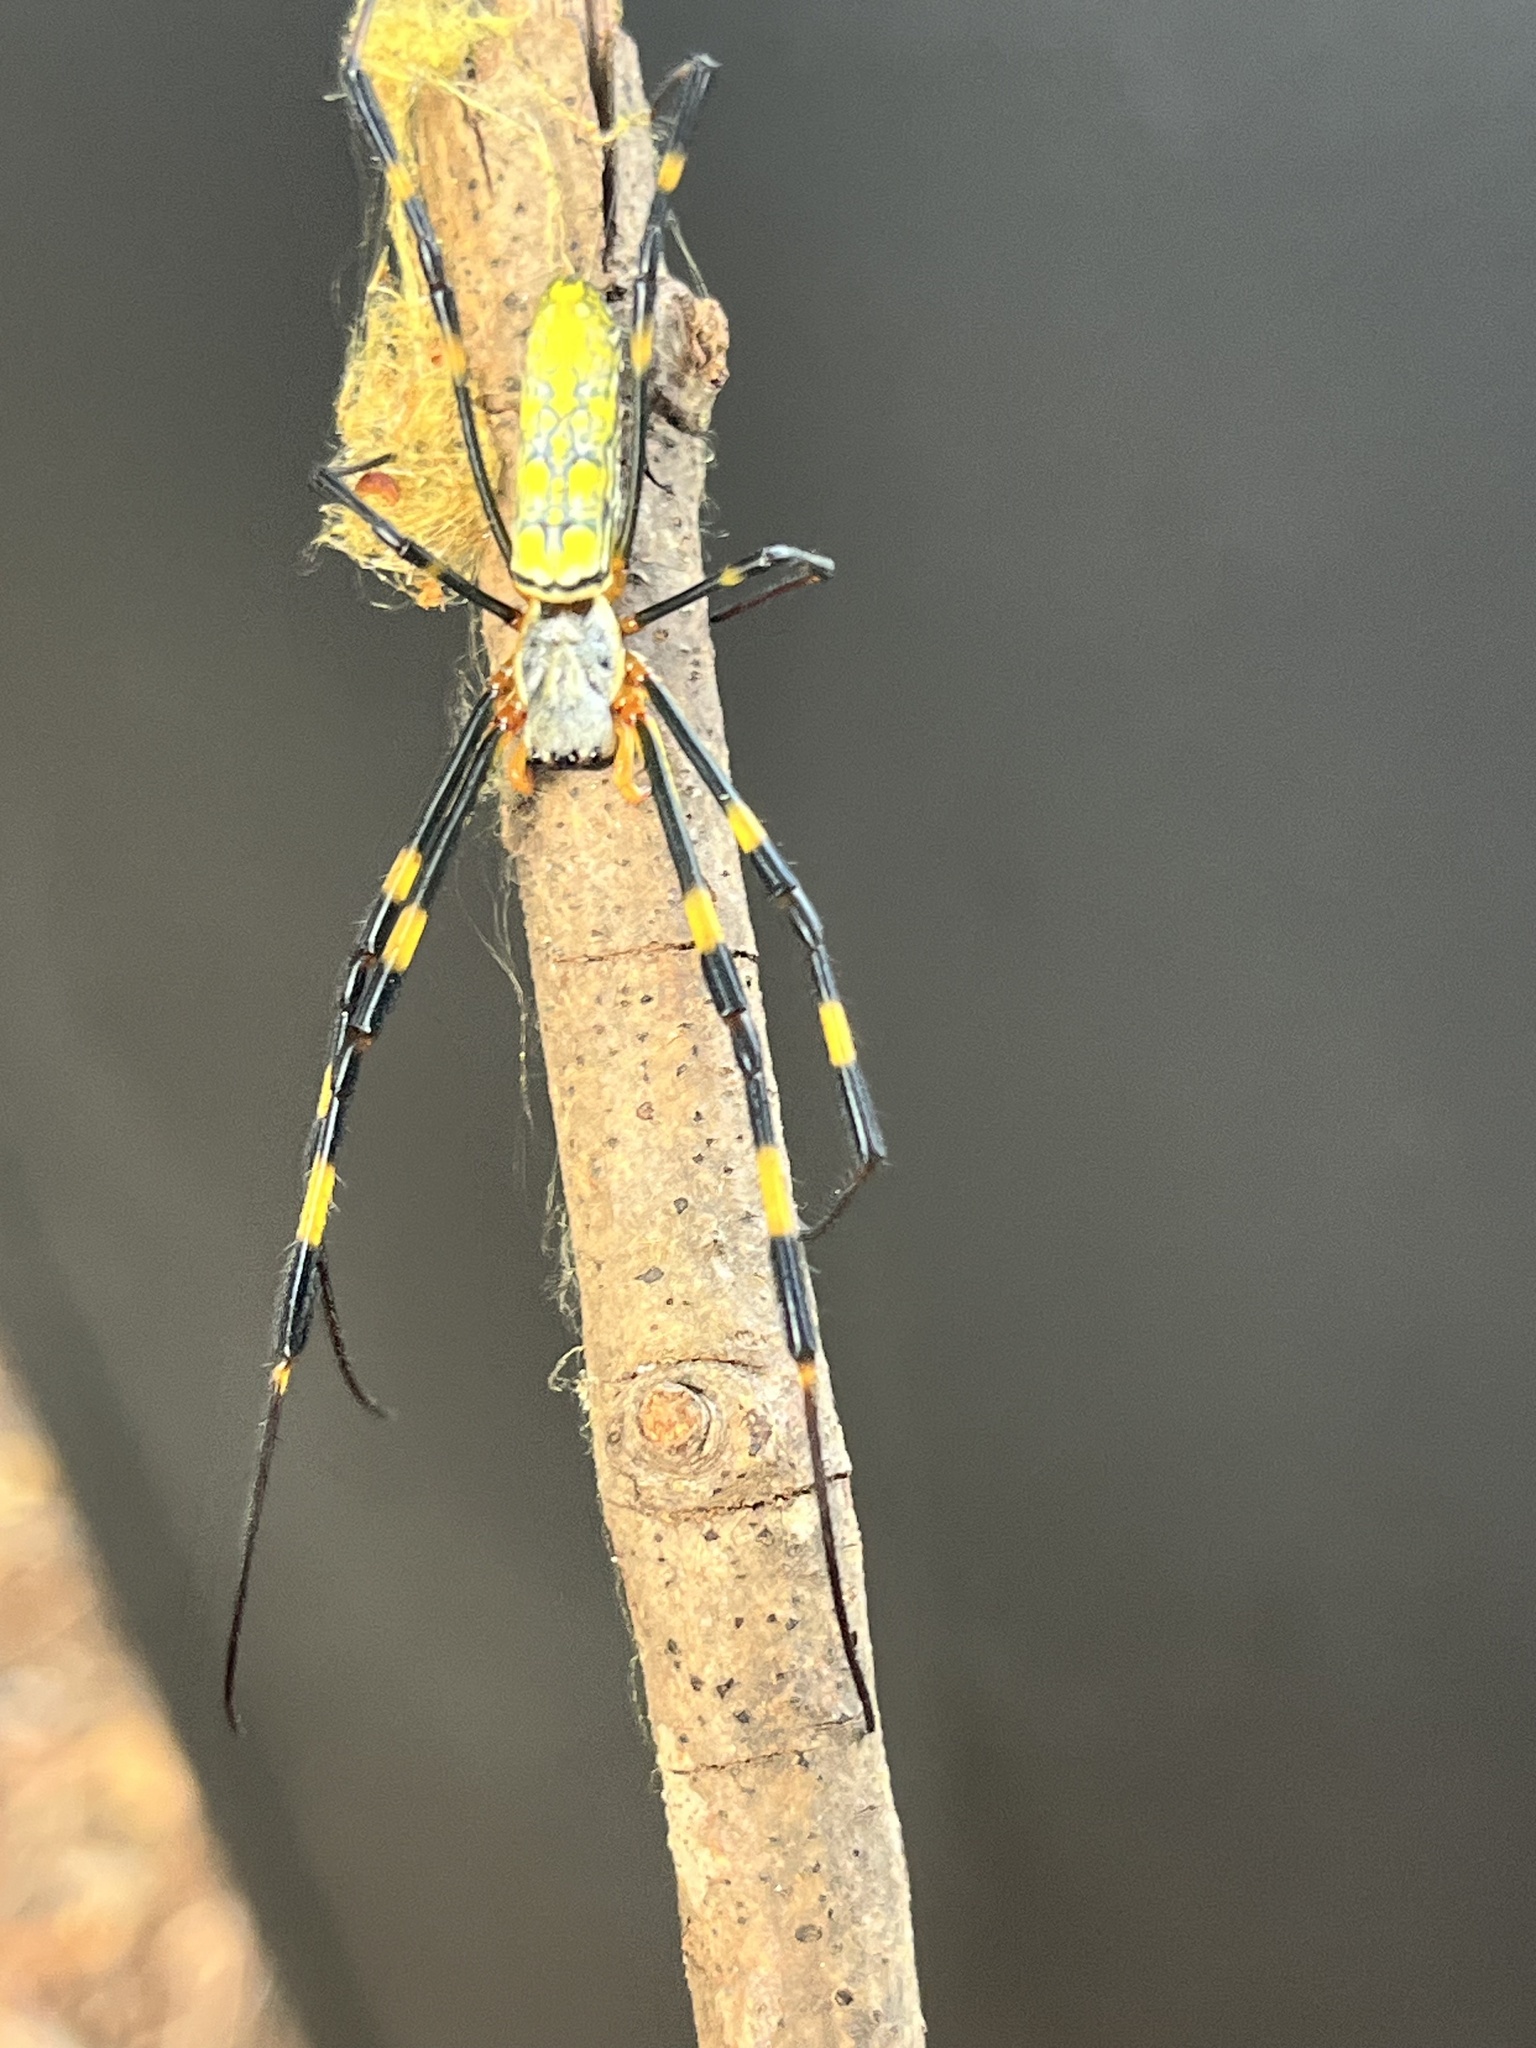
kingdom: Animalia
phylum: Arthropoda
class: Arachnida
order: Araneae
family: Araneidae
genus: Trichonephila
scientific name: Trichonephila clavata
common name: Jorō spider
